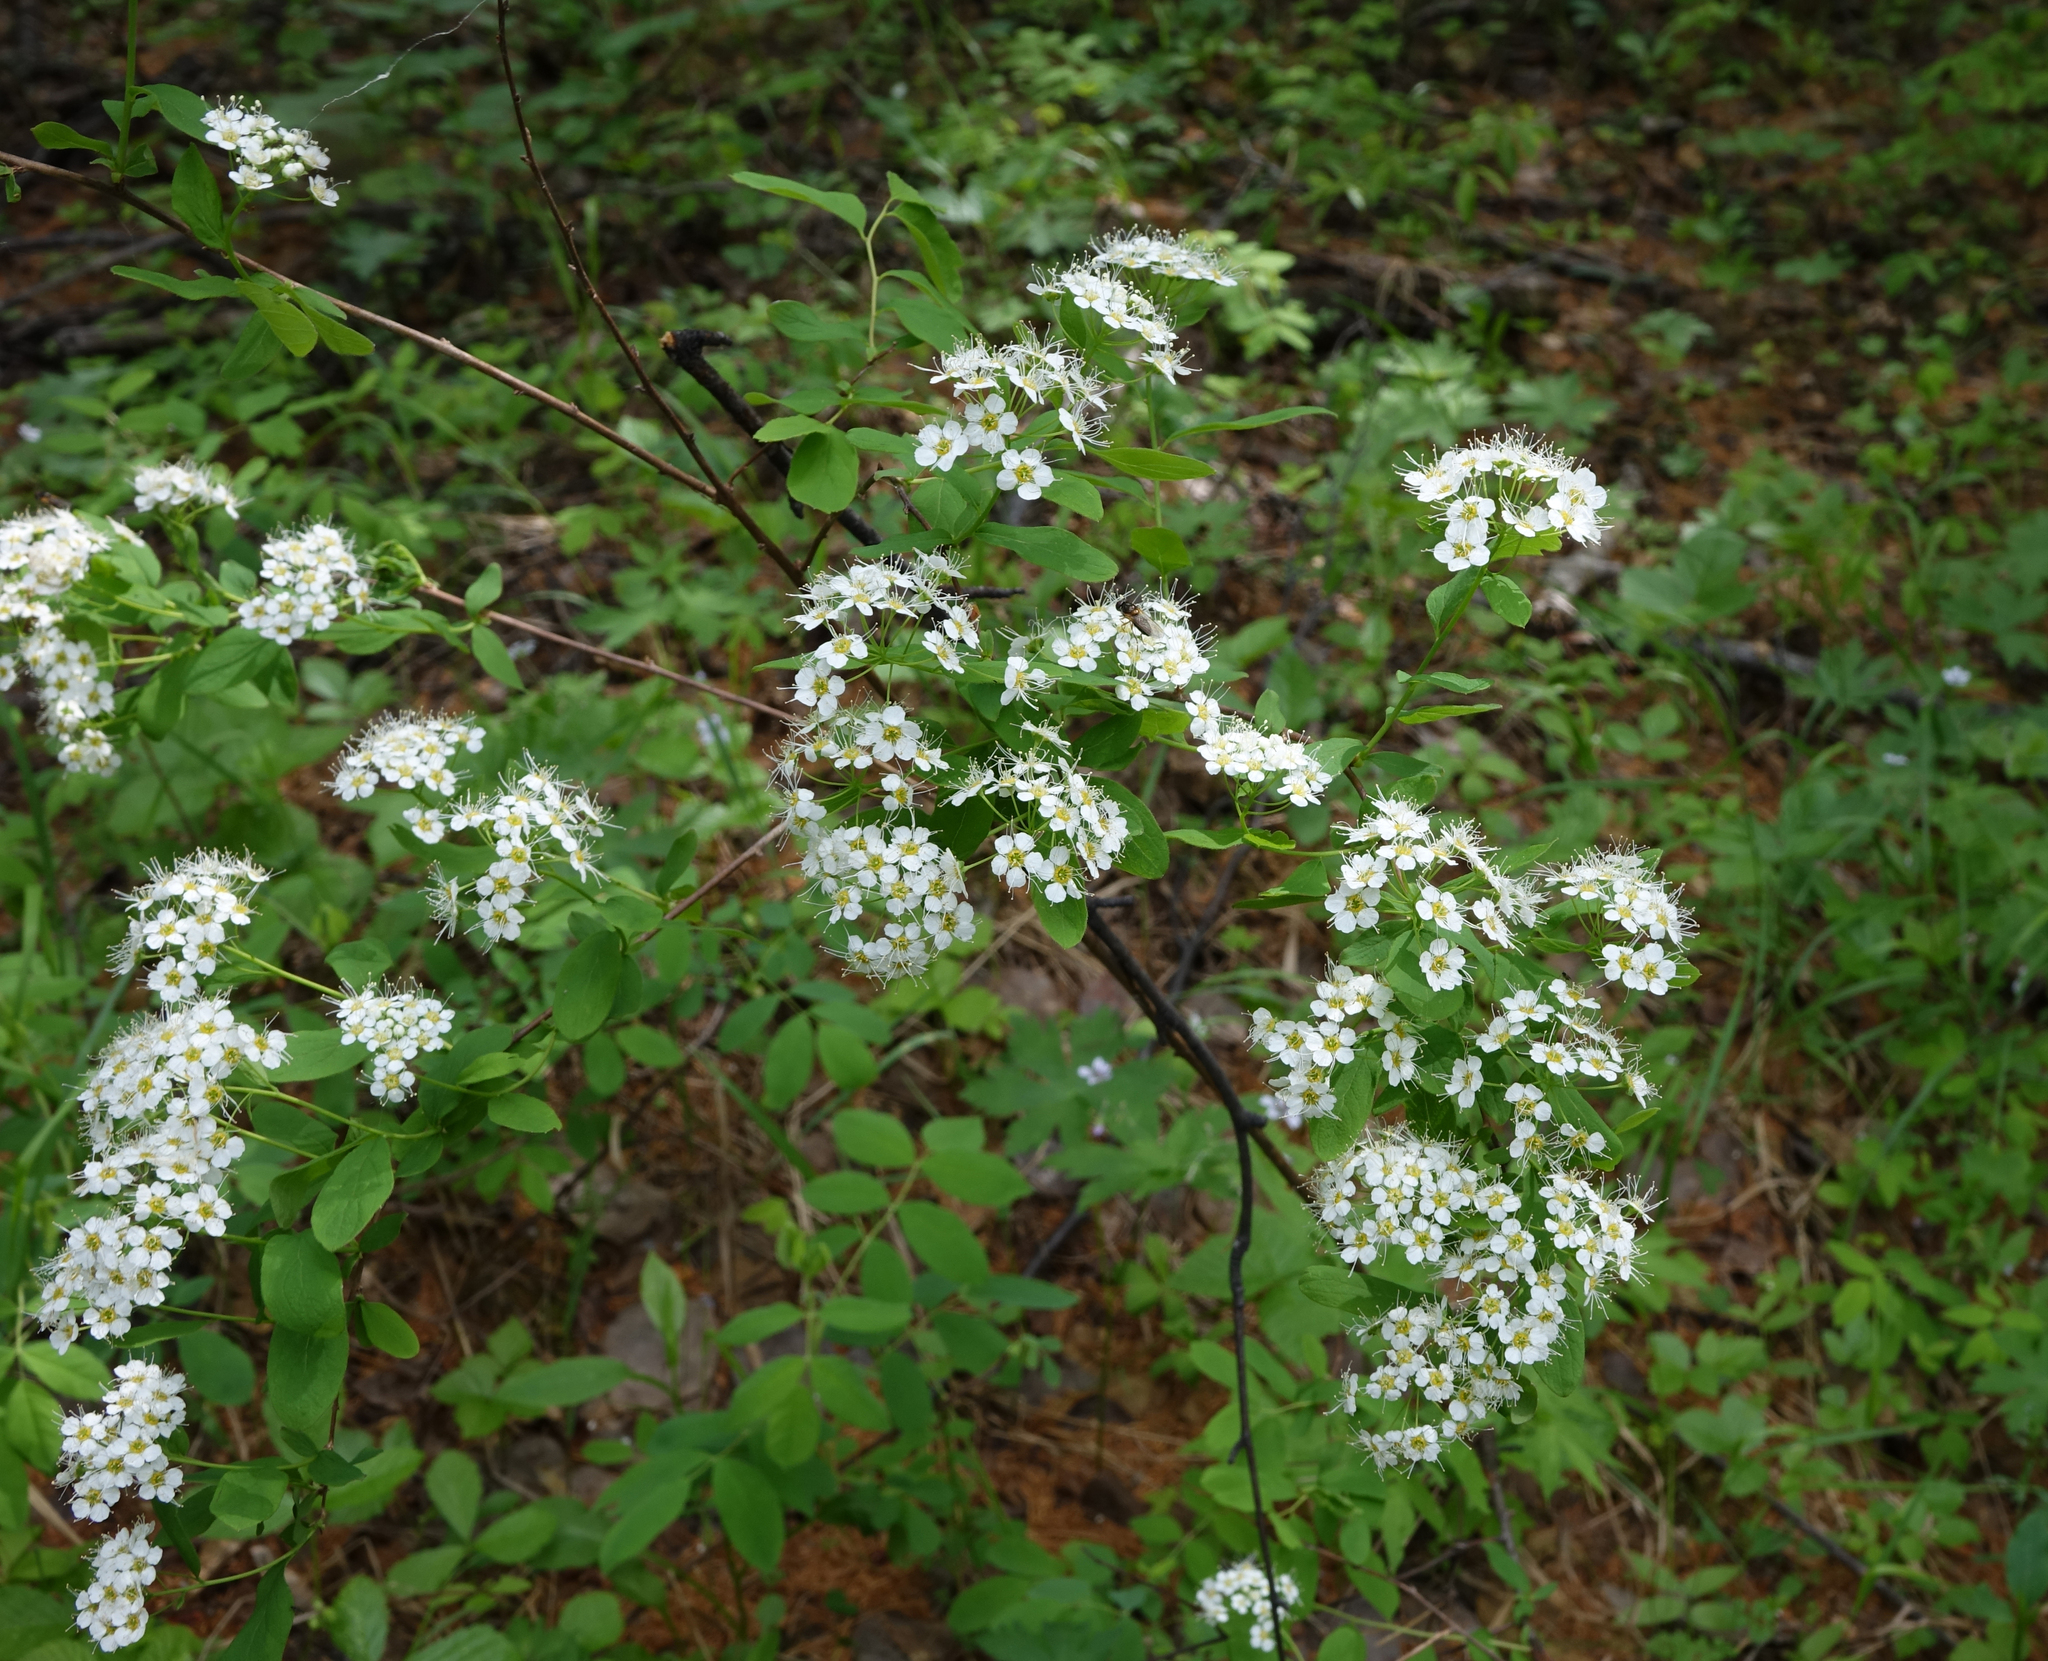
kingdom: Plantae
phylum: Tracheophyta
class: Magnoliopsida
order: Rosales
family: Rosaceae
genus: Spiraea
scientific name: Spiraea media
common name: Russian spiraea
